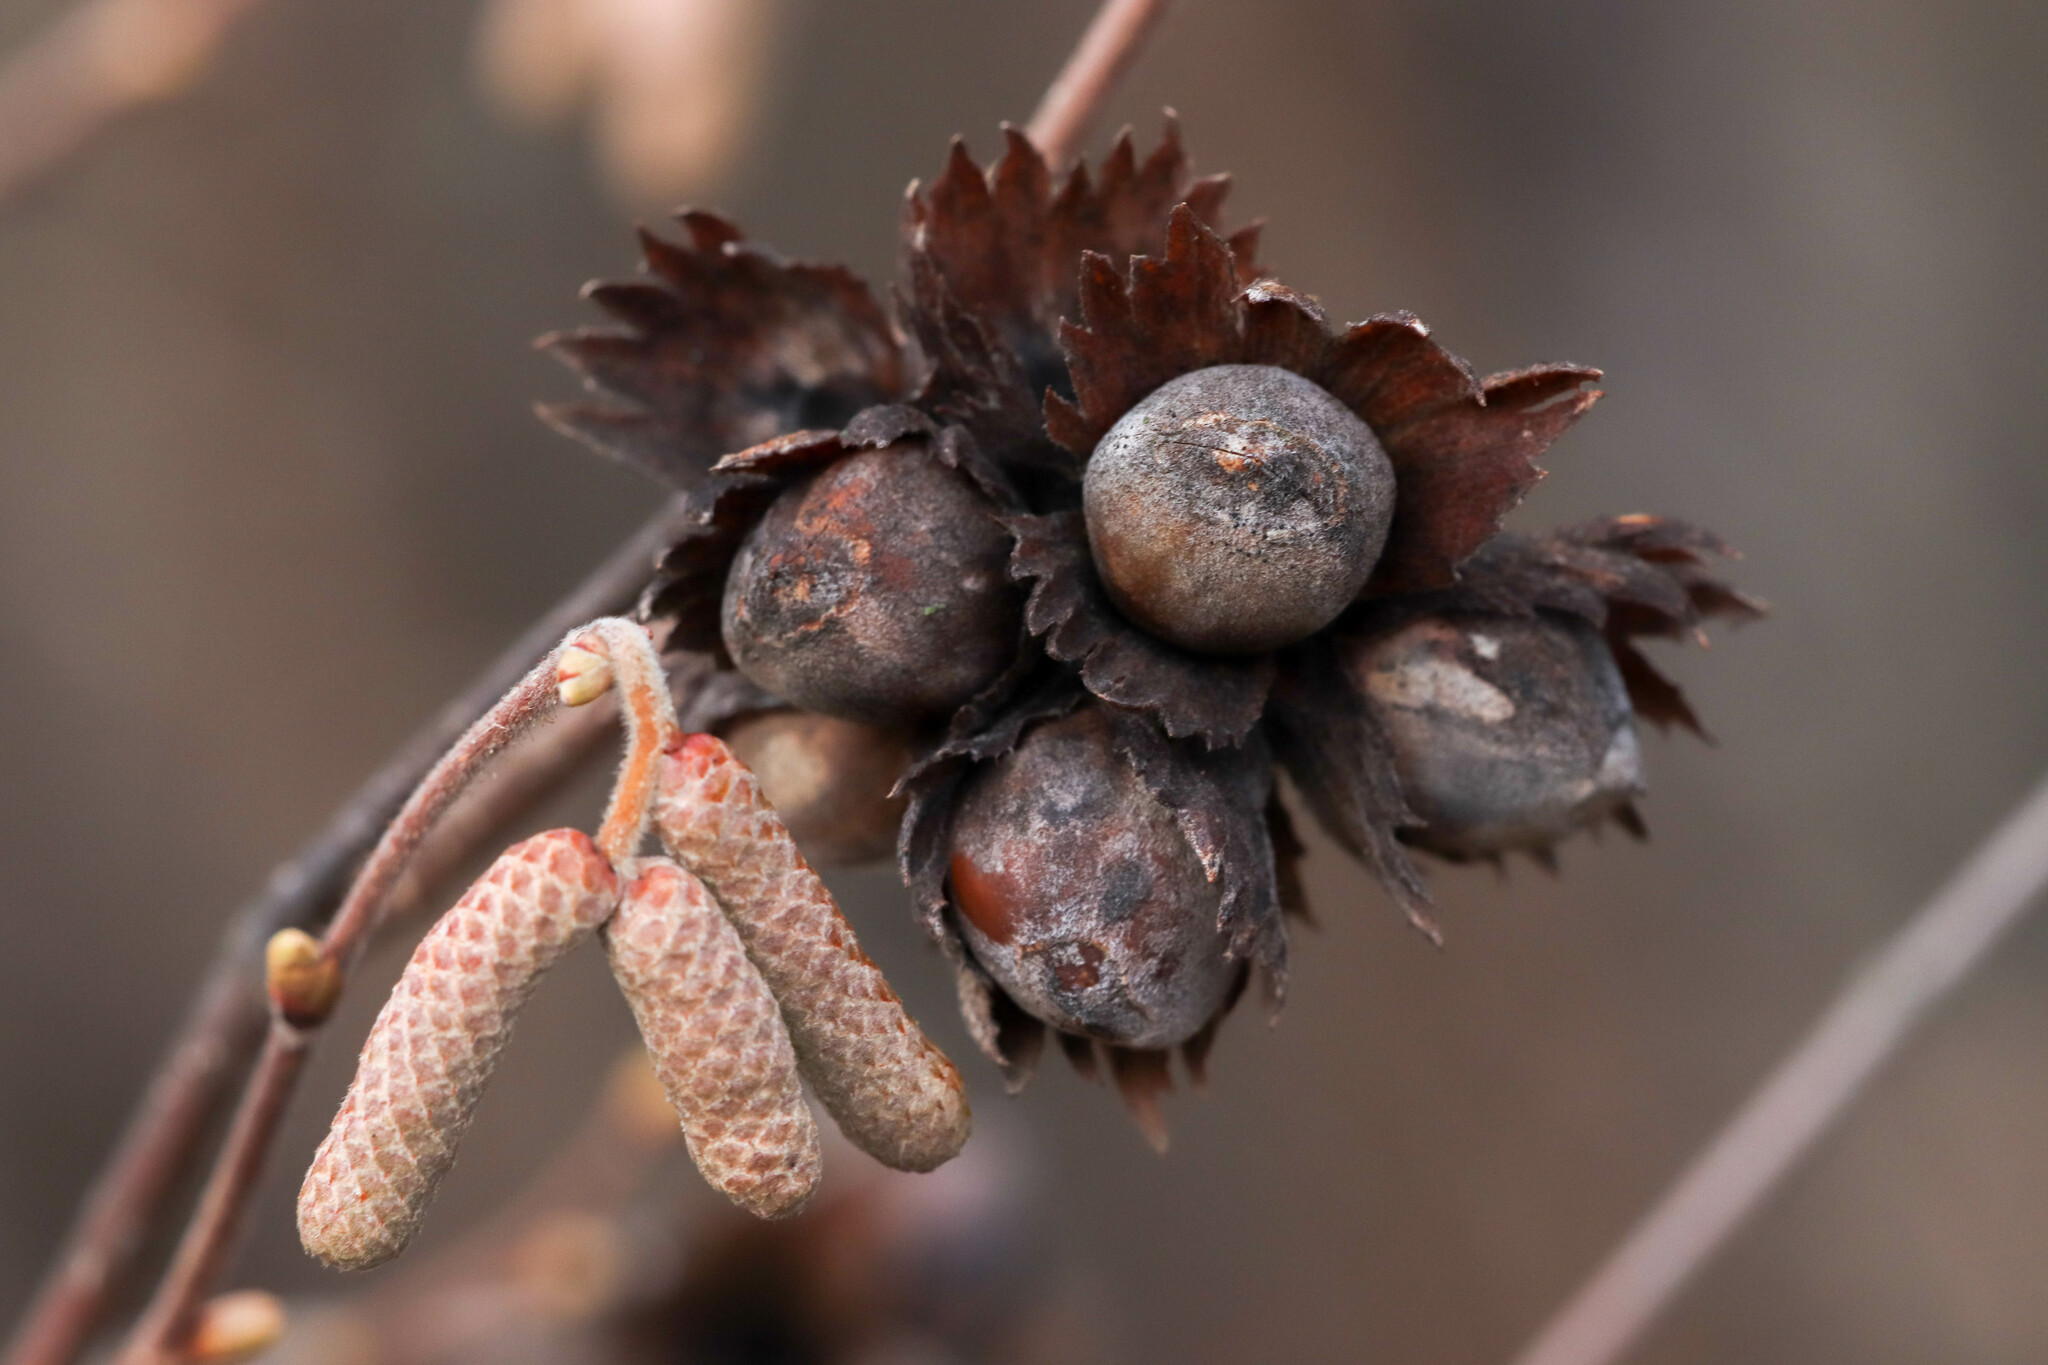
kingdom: Plantae
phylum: Tracheophyta
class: Magnoliopsida
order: Fagales
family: Betulaceae
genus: Corylus
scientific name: Corylus avellana
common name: European hazel
